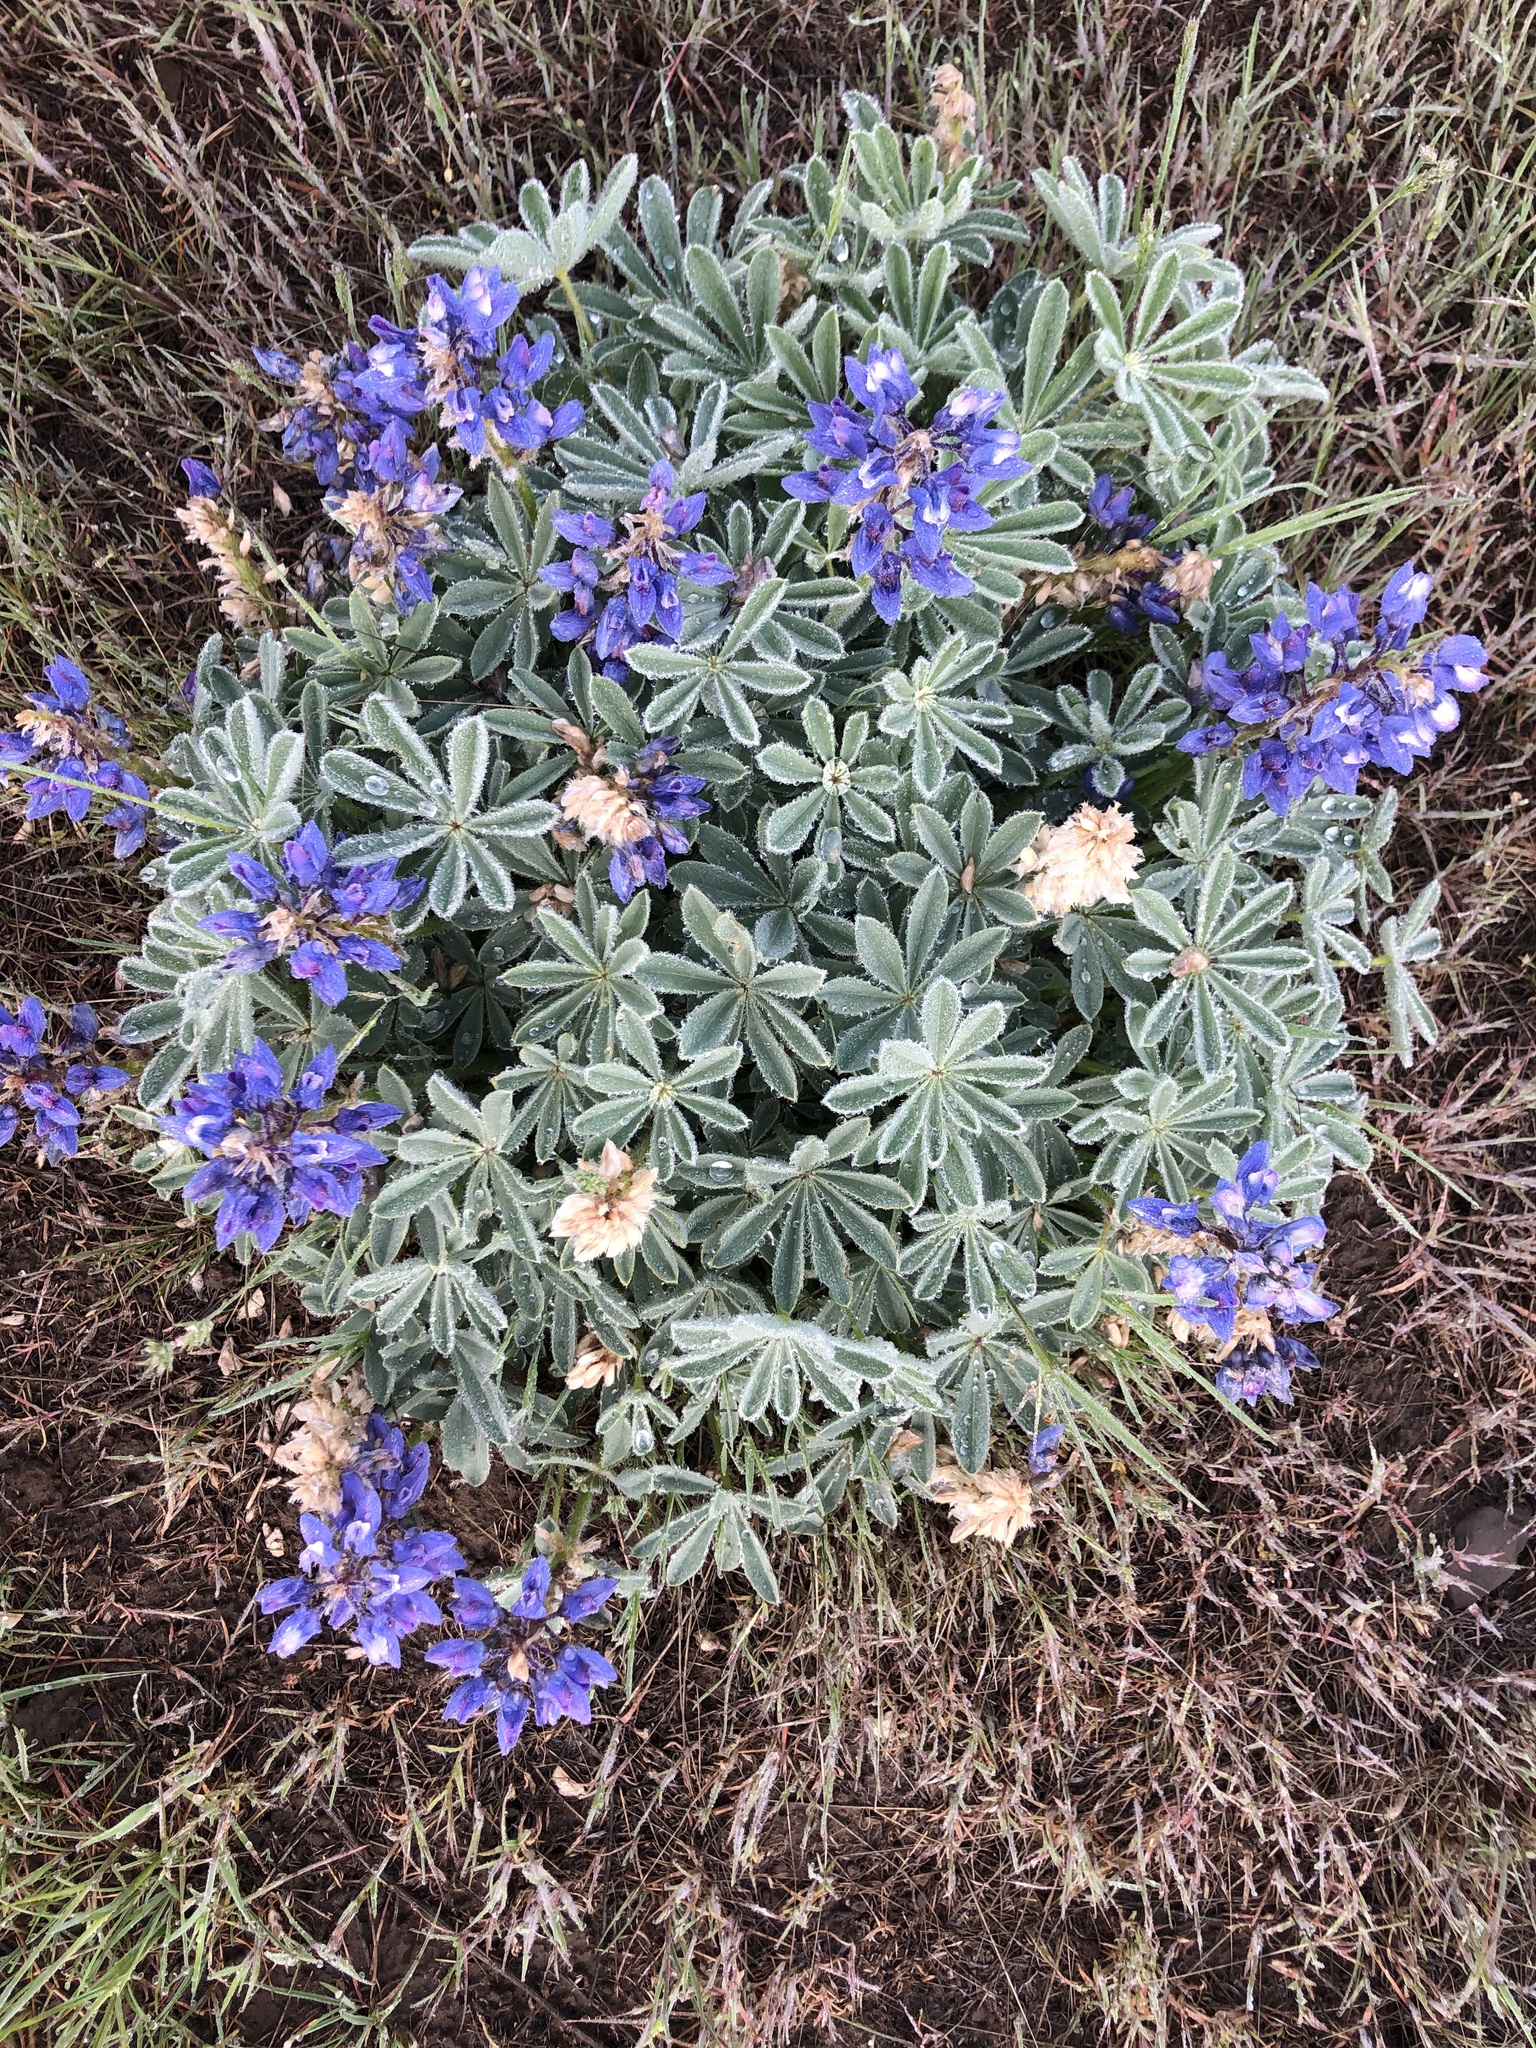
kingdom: Plantae
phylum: Tracheophyta
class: Magnoliopsida
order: Fabales
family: Fabaceae
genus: Lupinus
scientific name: Lupinus saxosus
